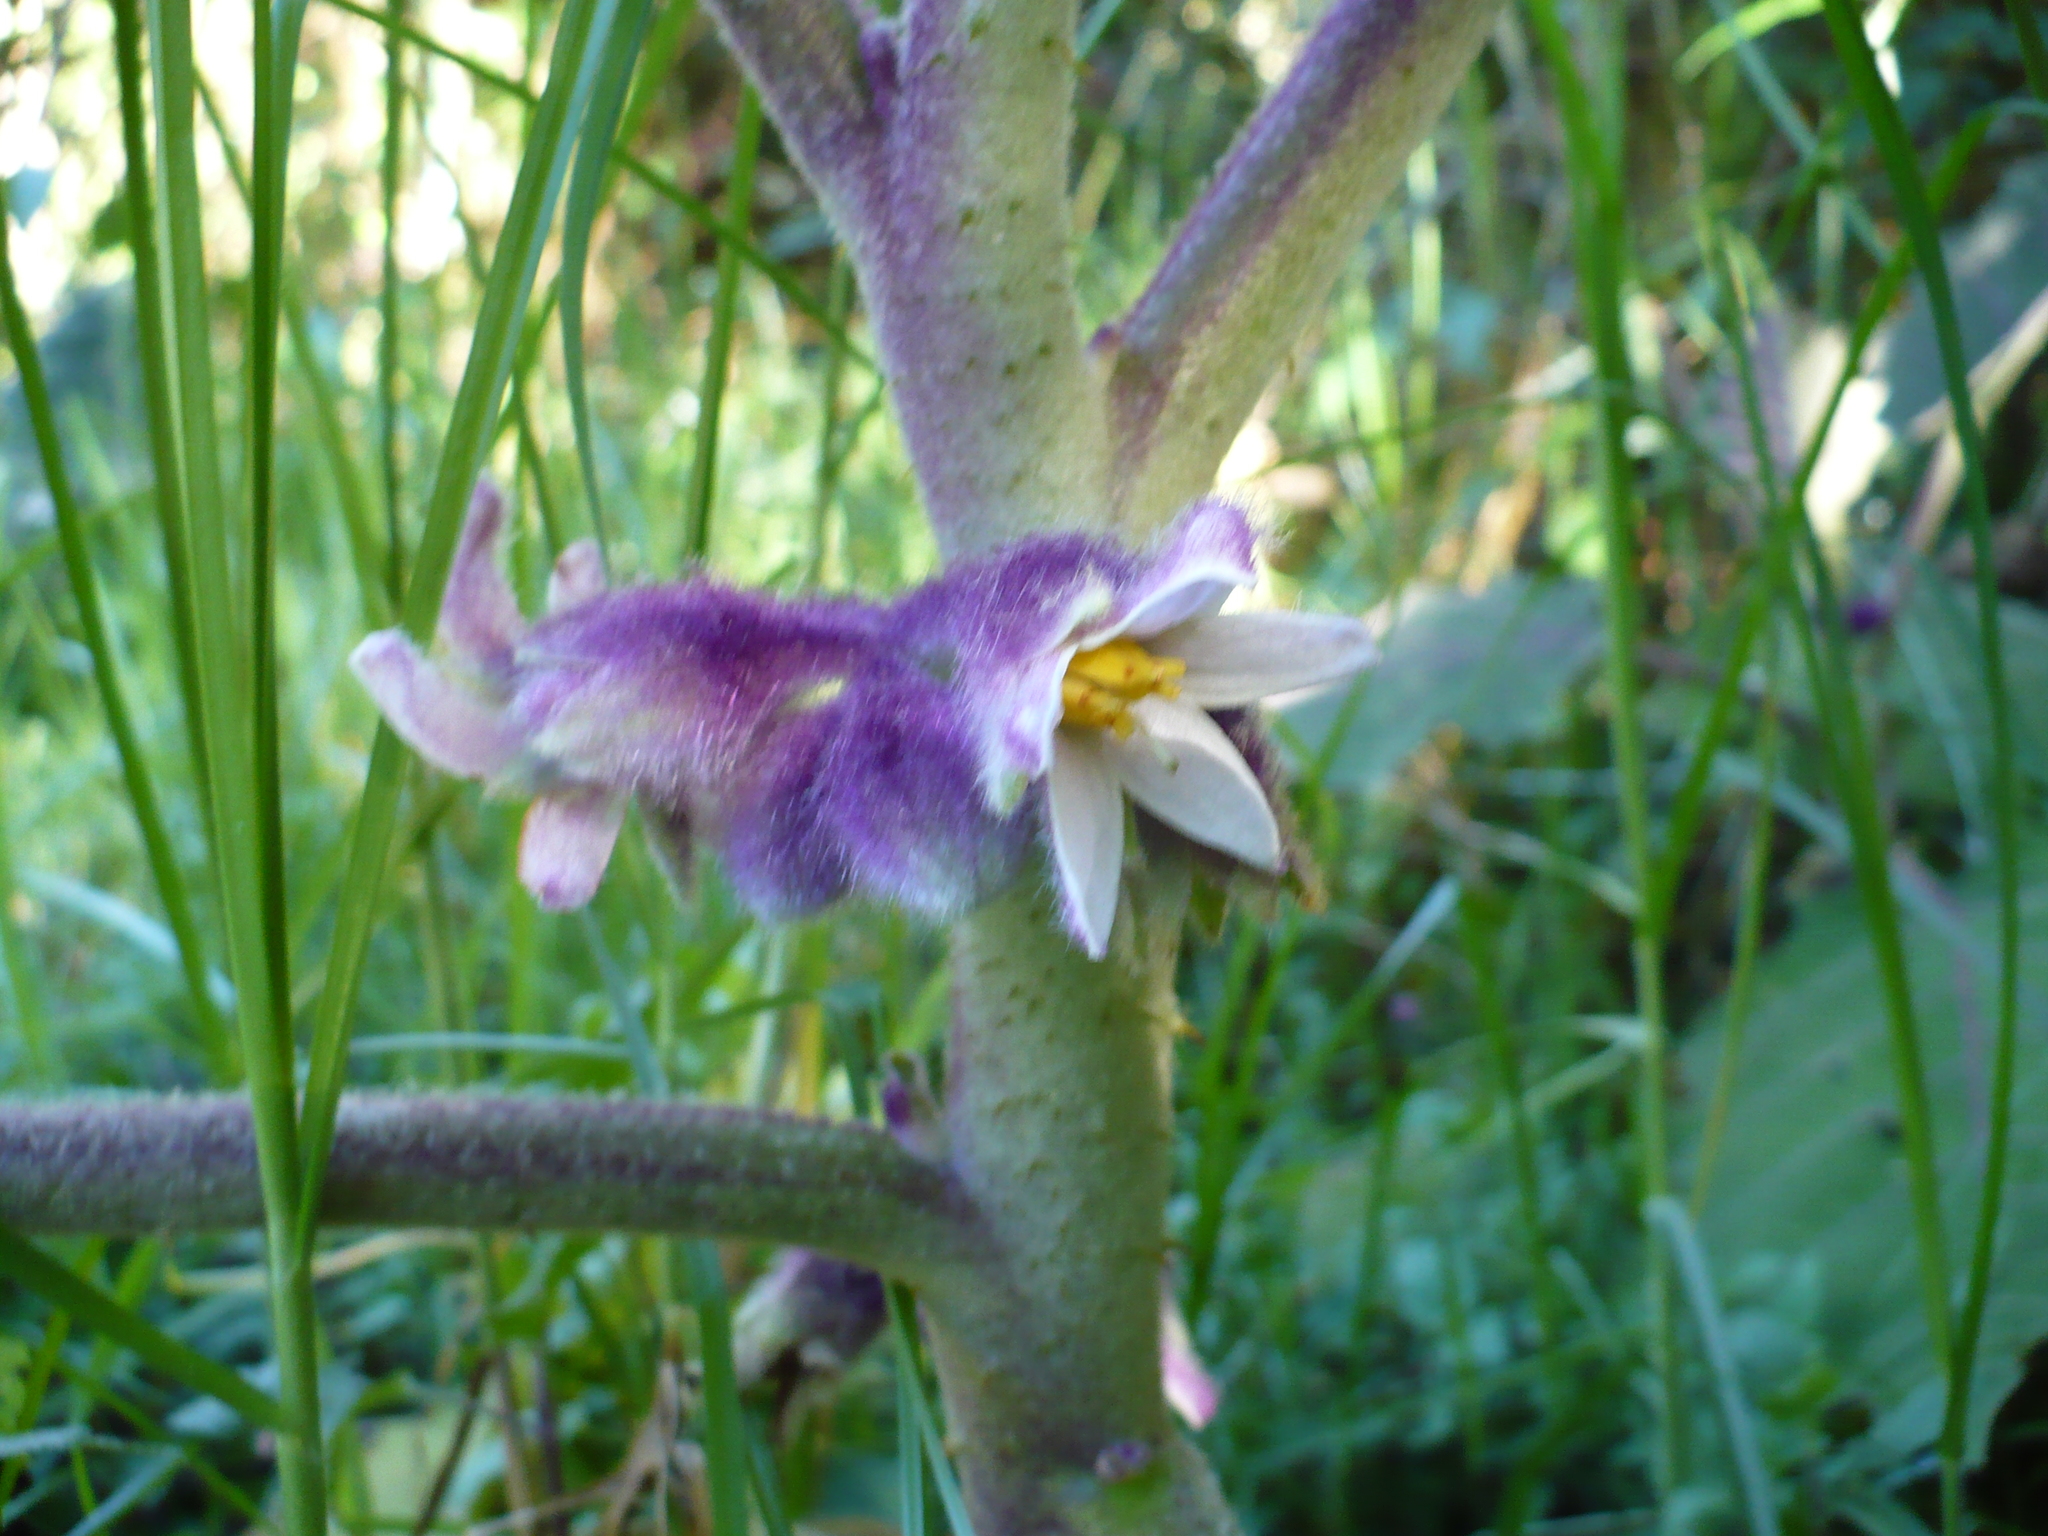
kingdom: Plantae
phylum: Tracheophyta
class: Magnoliopsida
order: Solanales
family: Solanaceae
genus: Solanum
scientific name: Solanum quitoense
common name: Quito-orange
